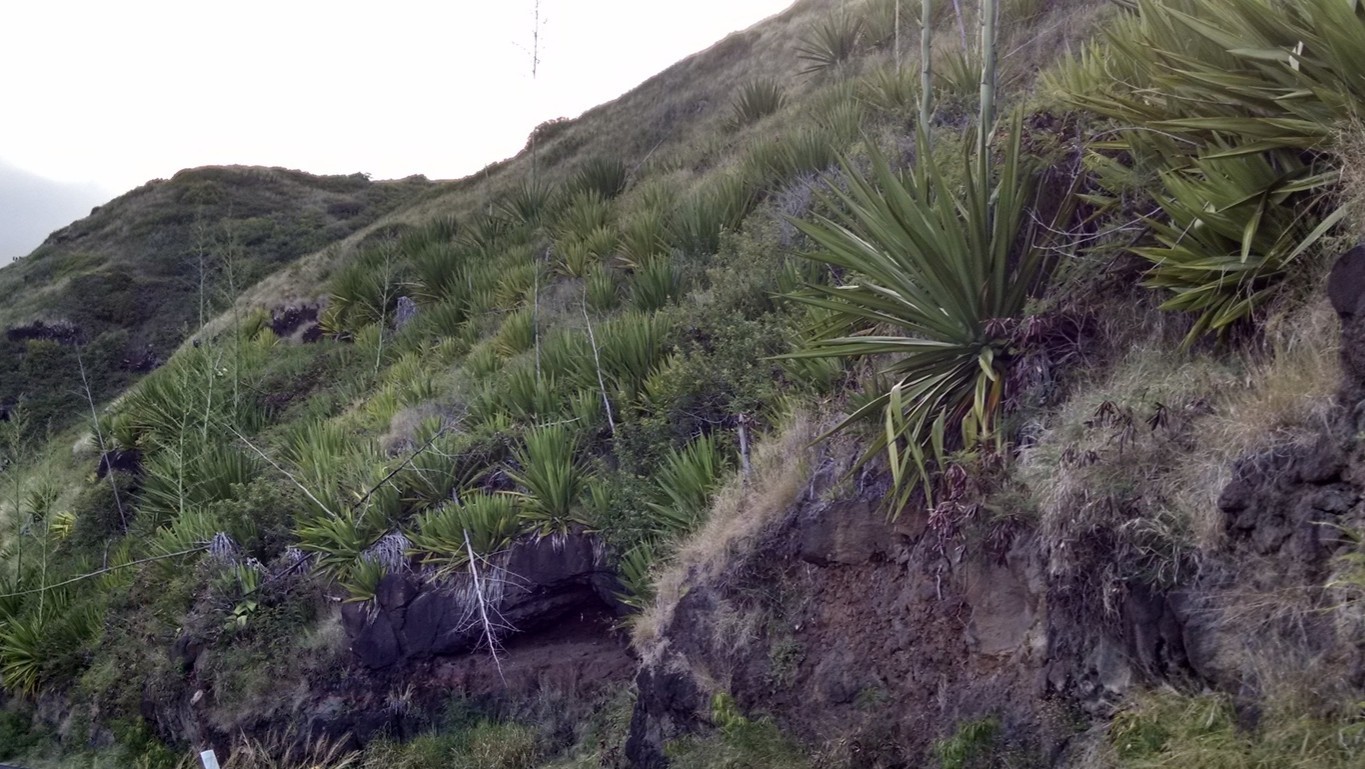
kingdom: Plantae
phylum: Tracheophyta
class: Liliopsida
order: Asparagales
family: Asparagaceae
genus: Furcraea
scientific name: Furcraea foetida
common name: Mauritius hemp
